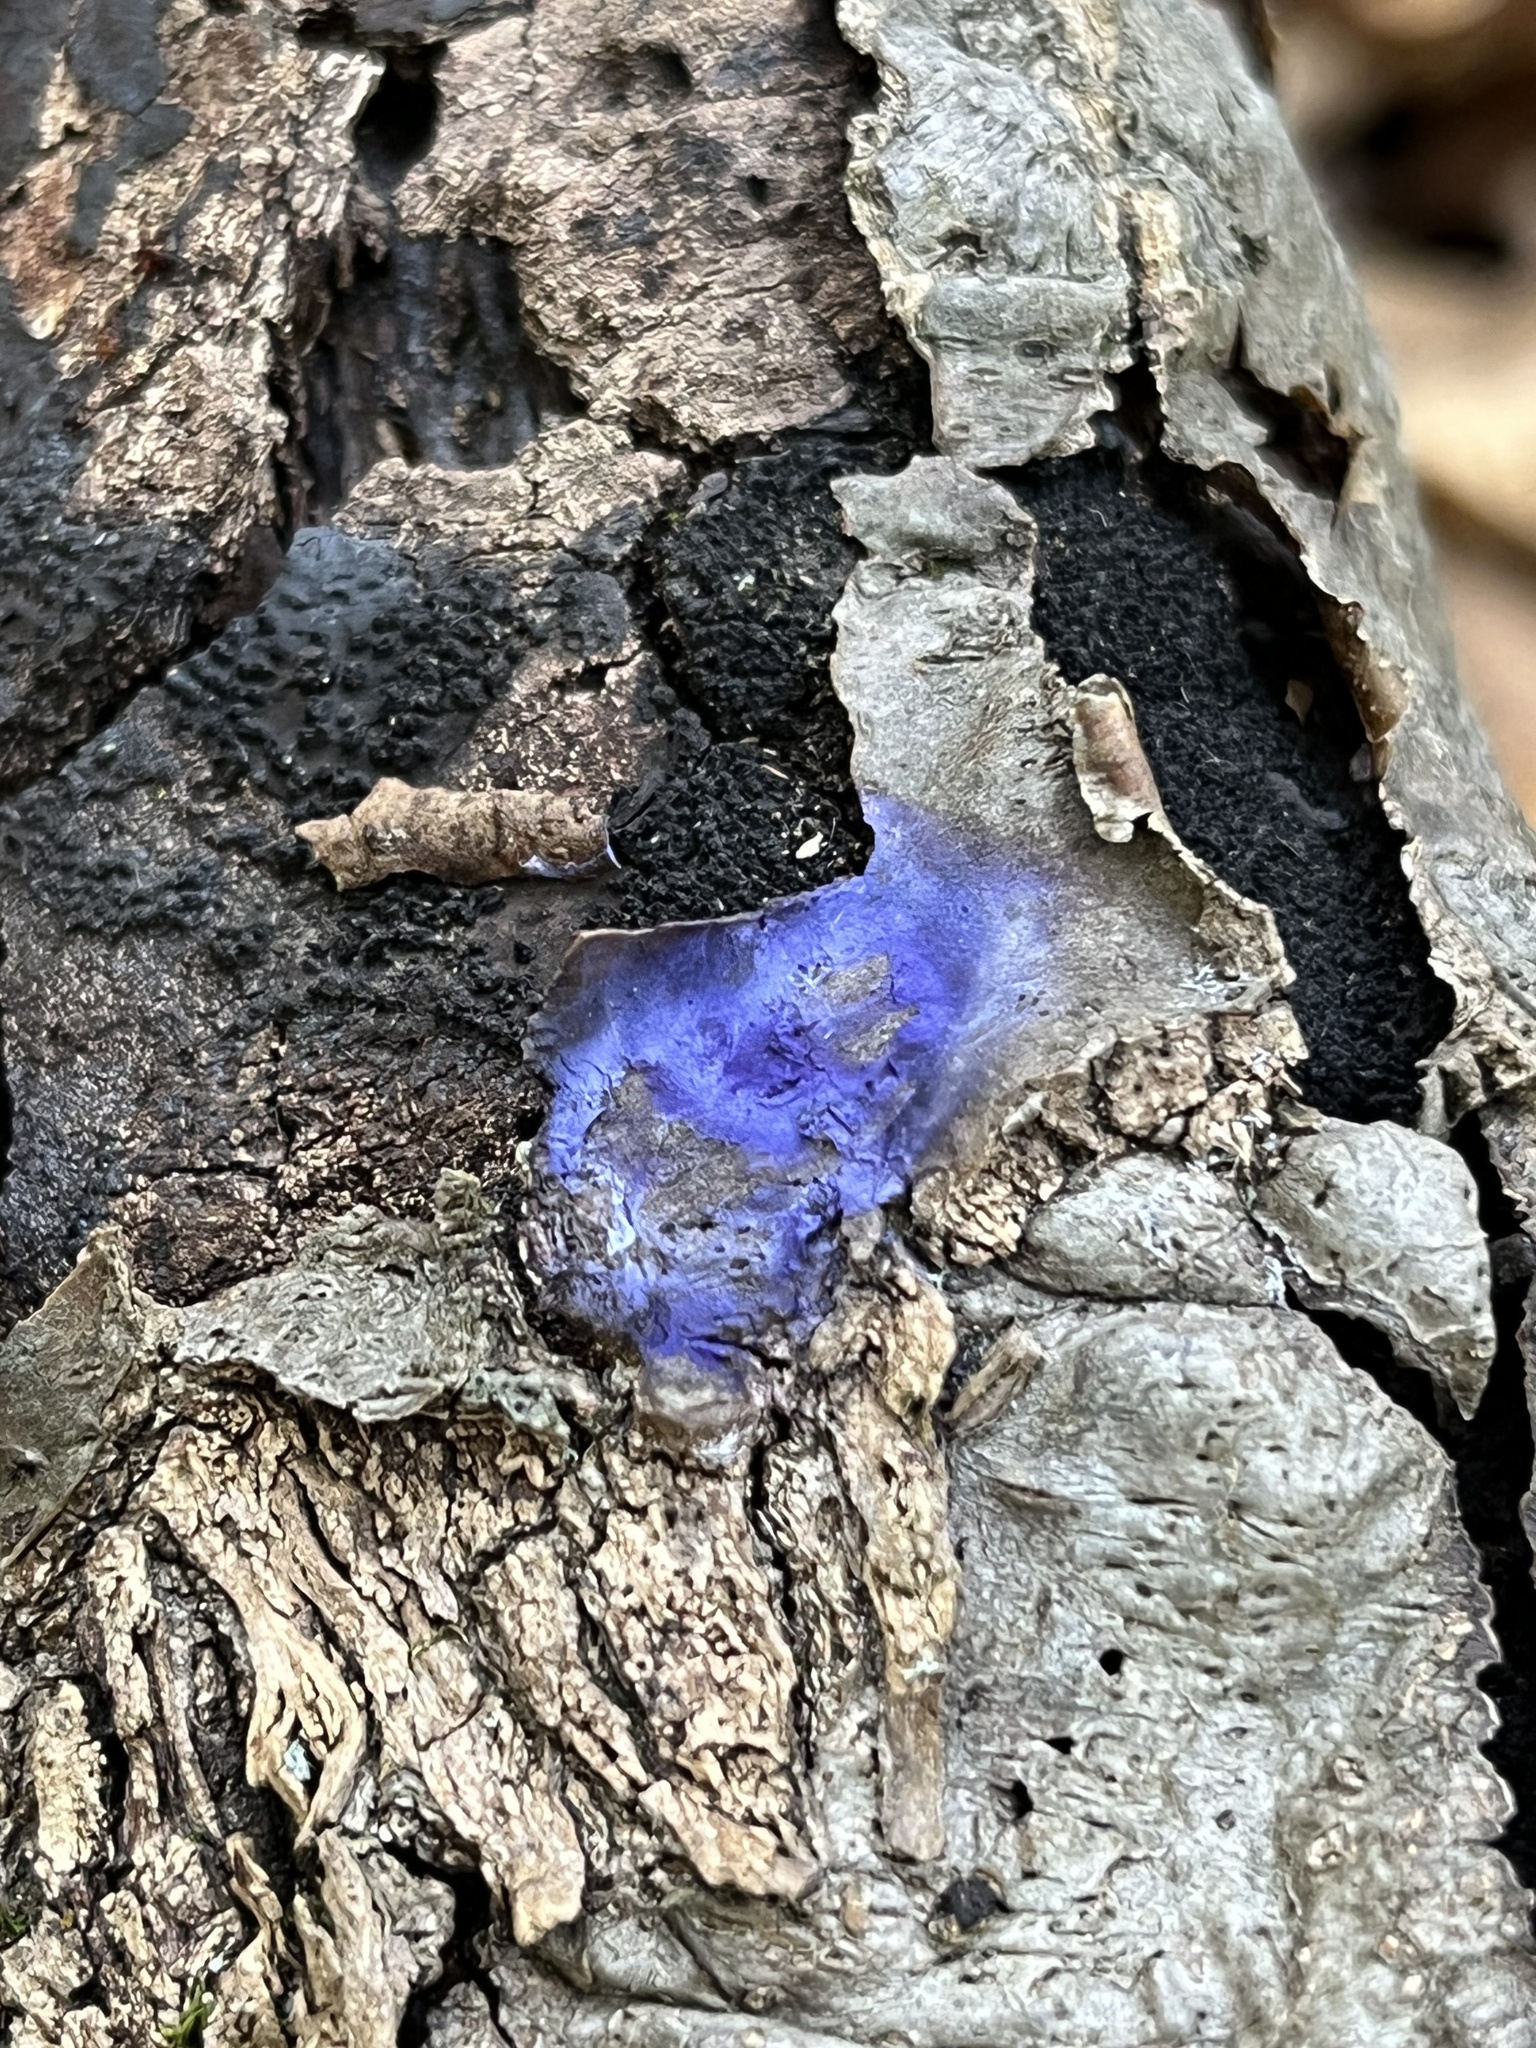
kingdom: Fungi
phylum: Basidiomycota
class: Agaricomycetes
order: Polyporales
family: Phanerochaetaceae
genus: Terana
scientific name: Terana coerulea
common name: Cobalt crust
